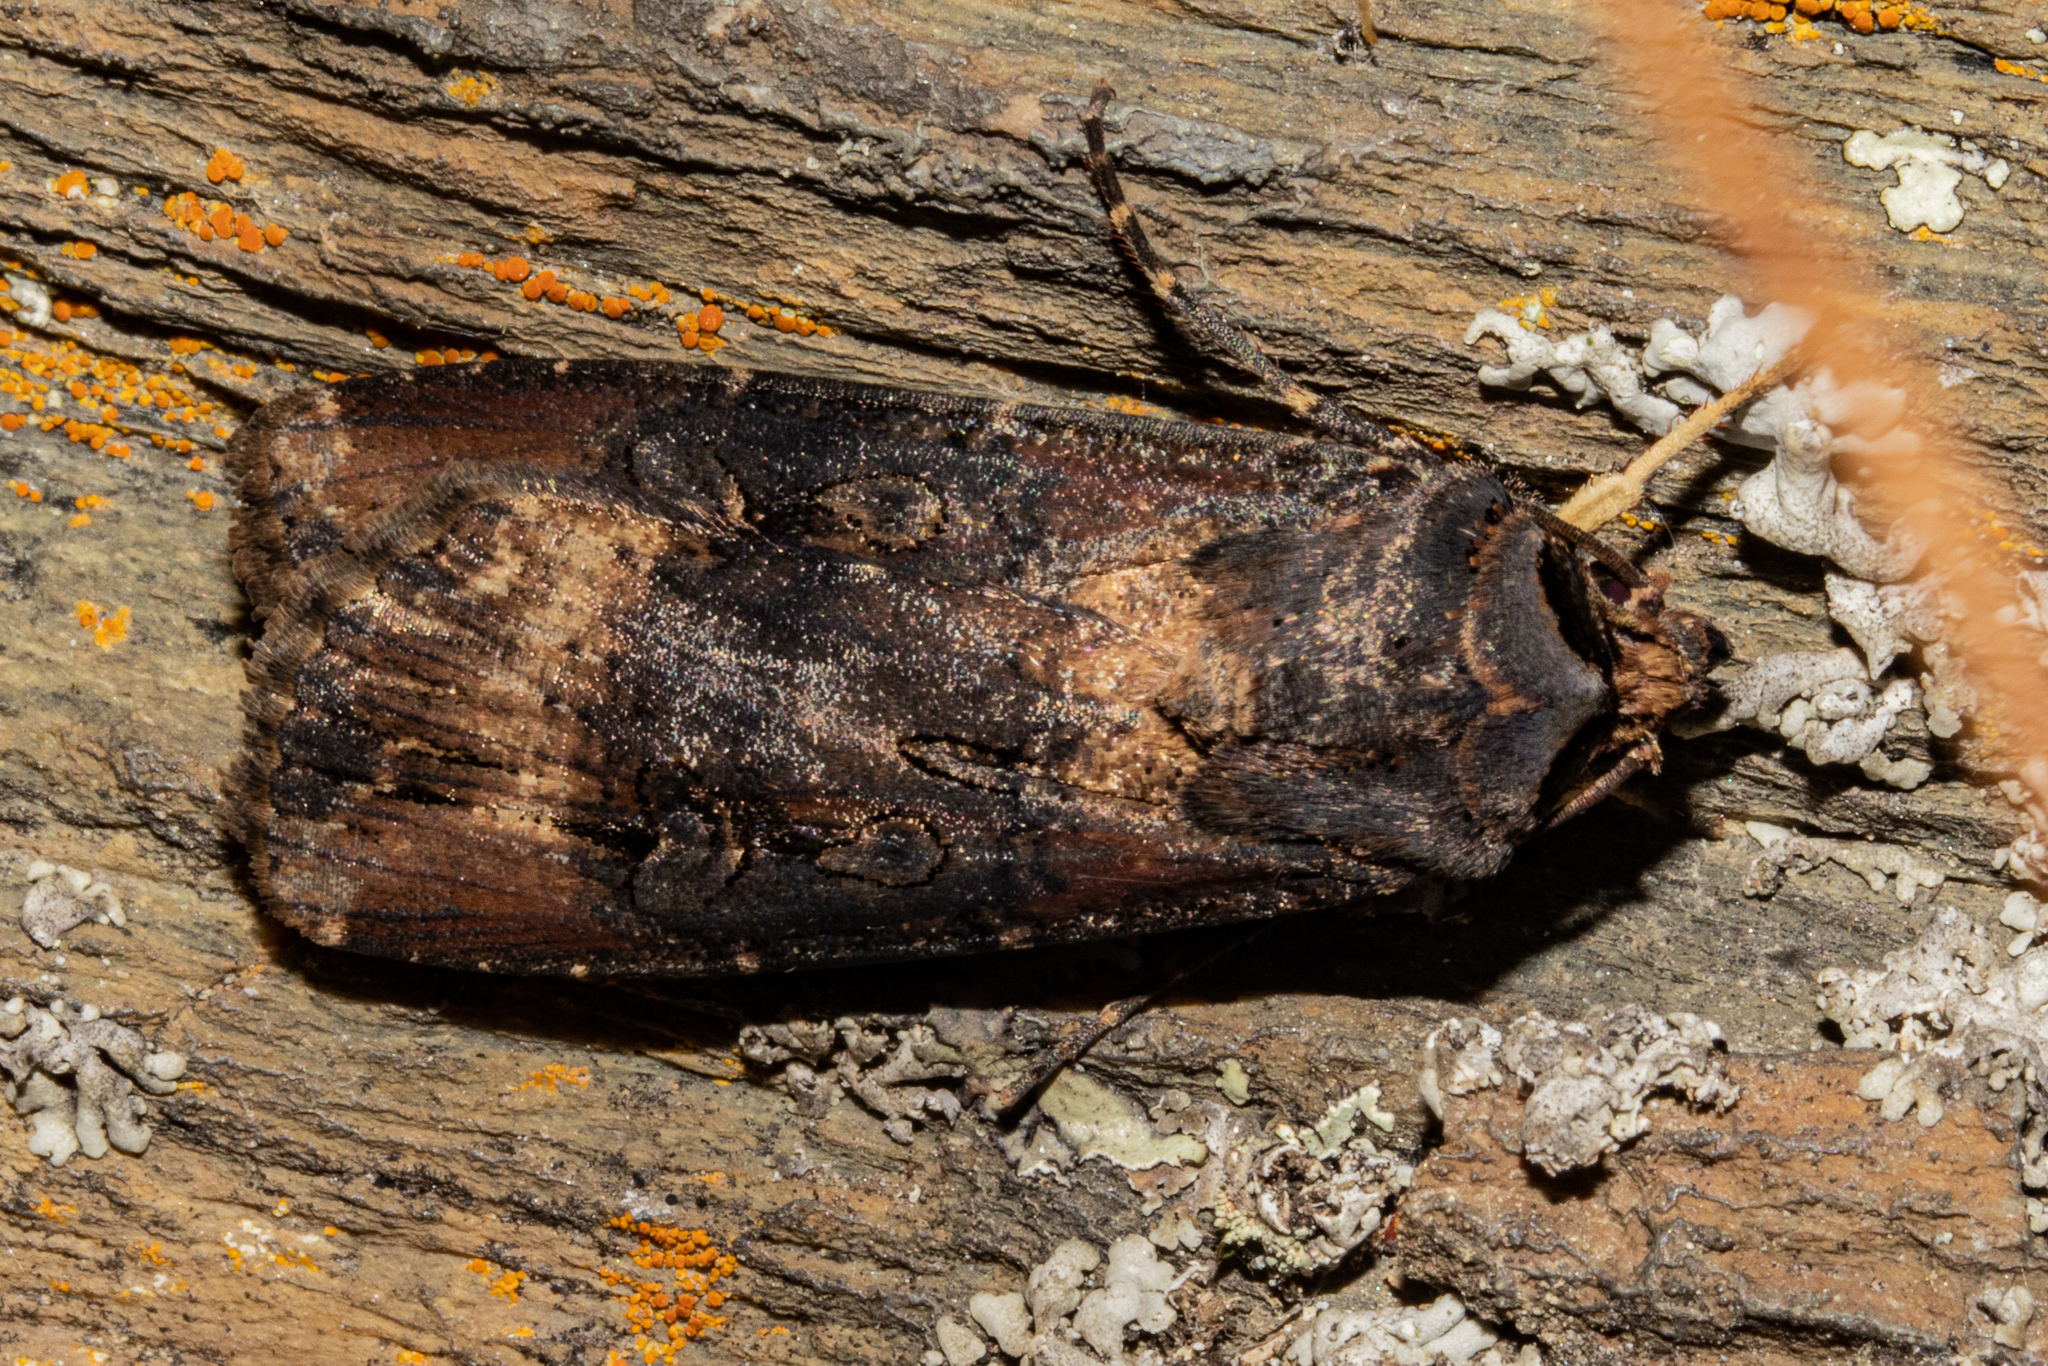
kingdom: Animalia
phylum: Arthropoda
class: Insecta
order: Lepidoptera
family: Noctuidae
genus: Agrotis
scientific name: Agrotis ipsilon
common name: Dark sword-grass
